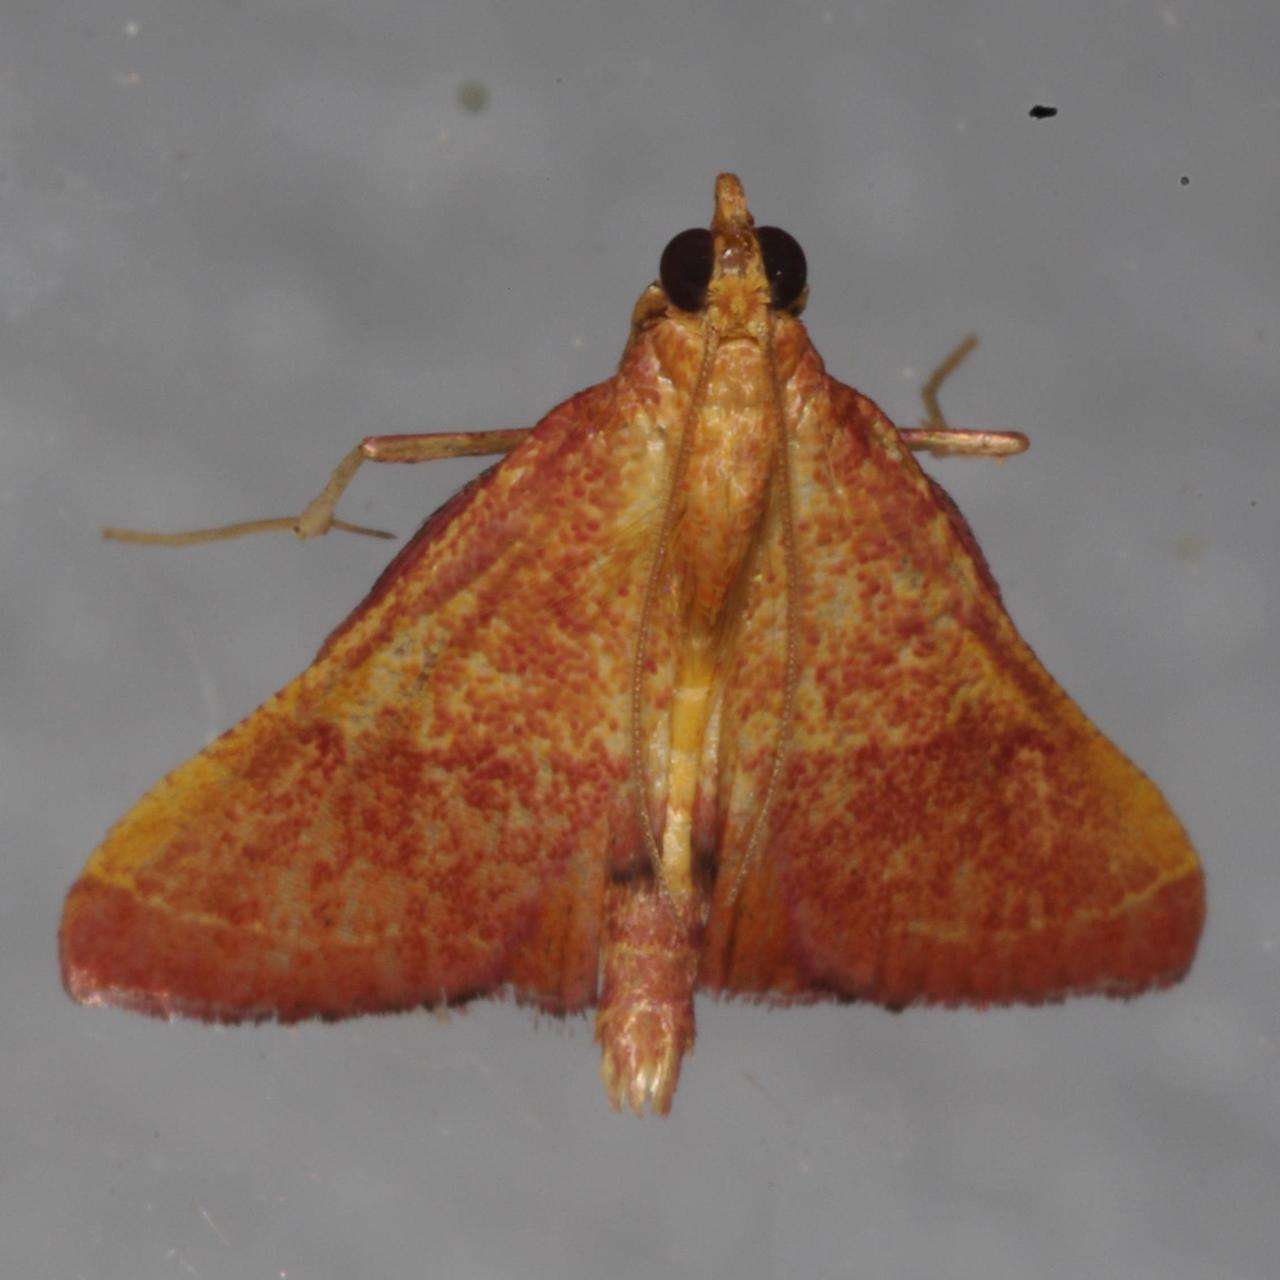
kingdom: Animalia
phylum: Arthropoda
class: Insecta
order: Lepidoptera
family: Pyralidae
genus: Endotricha
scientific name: Endotricha pyrosalis
